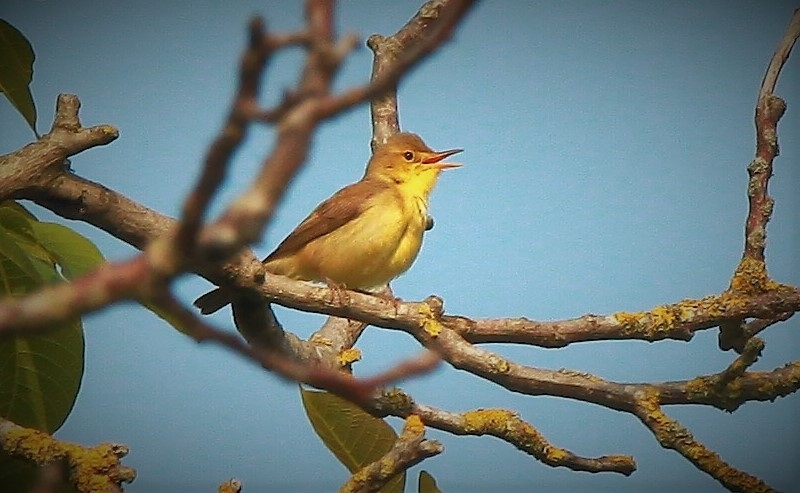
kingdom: Animalia
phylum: Chordata
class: Aves
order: Passeriformes
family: Acrocephalidae
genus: Hippolais
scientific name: Hippolais polyglotta
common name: Melodious warbler
